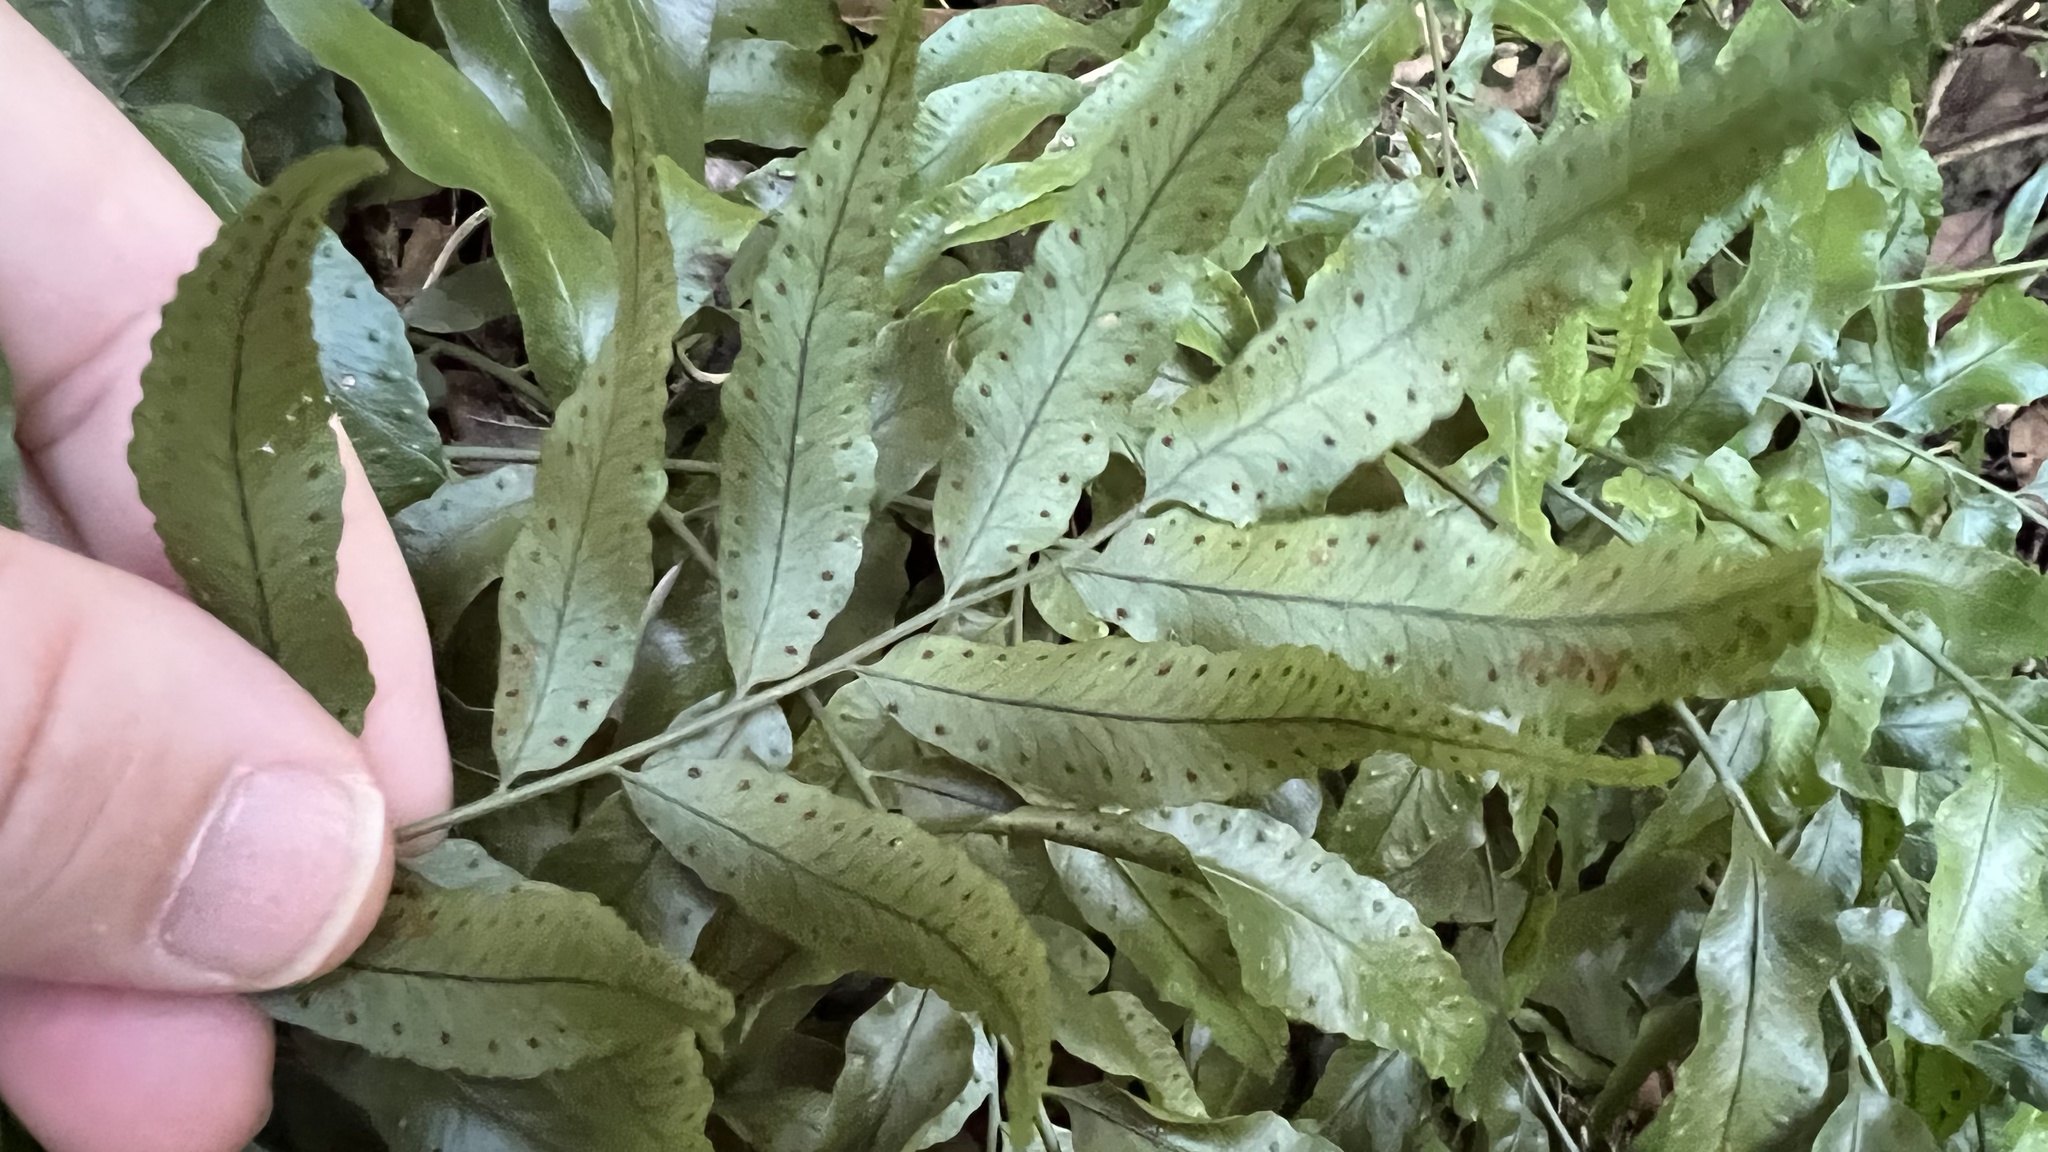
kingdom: Plantae
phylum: Tracheophyta
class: Polypodiopsida
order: Polypodiales
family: Tectariaceae
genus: Arthropteris
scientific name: Arthropteris tenella
